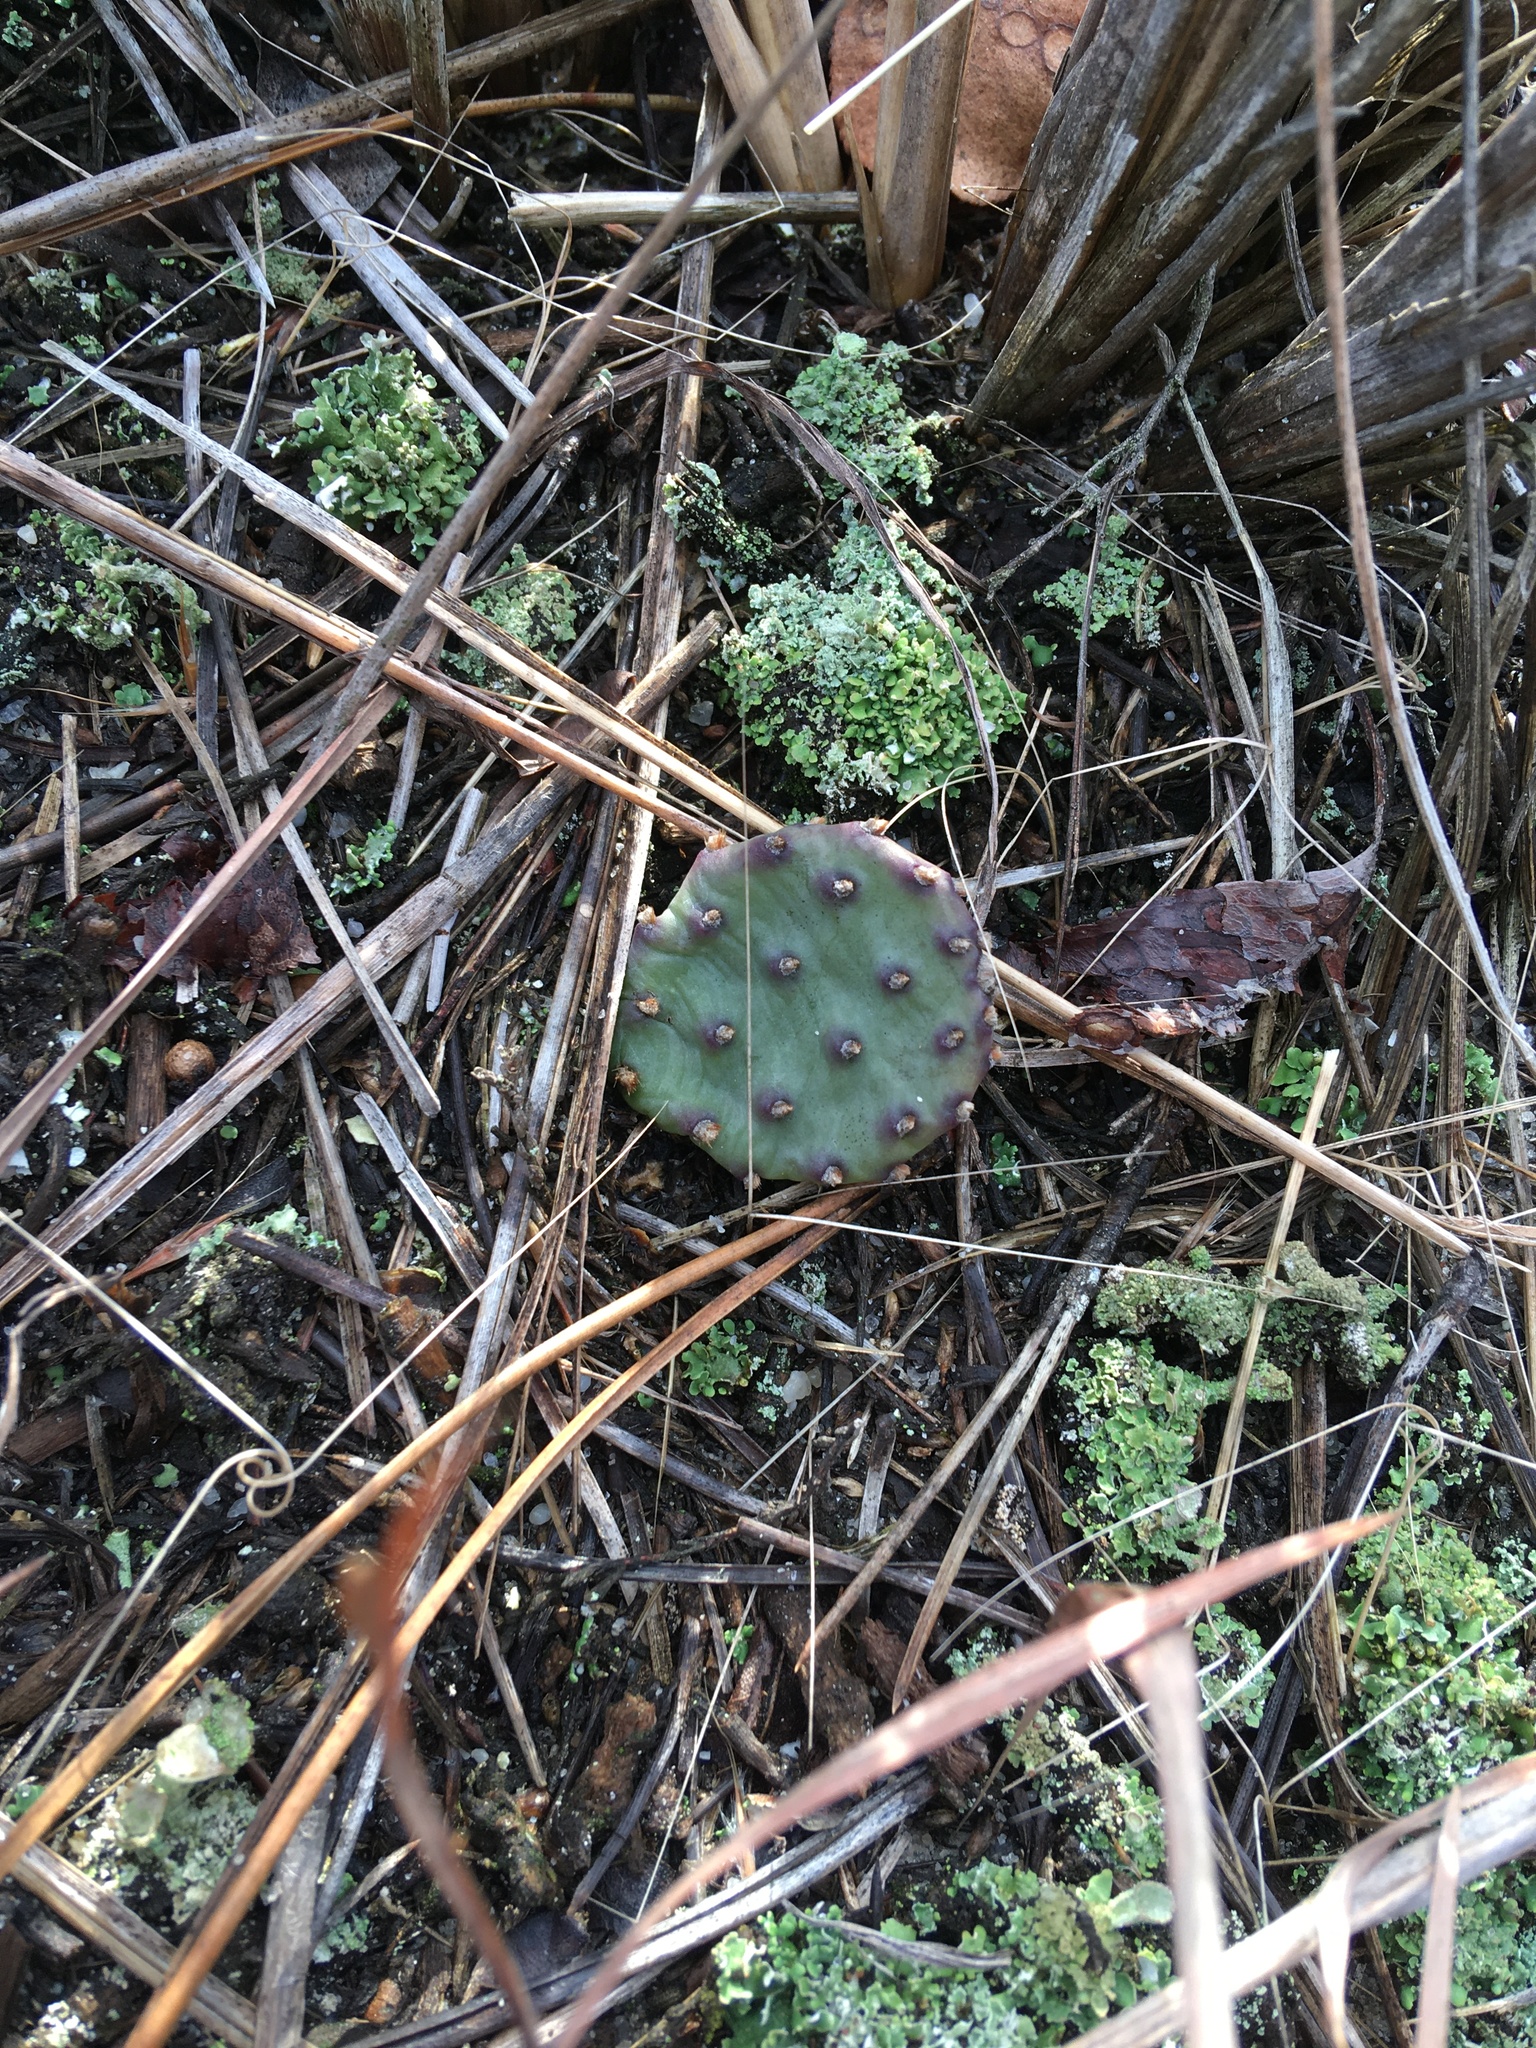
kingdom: Plantae
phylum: Tracheophyta
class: Magnoliopsida
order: Caryophyllales
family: Cactaceae
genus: Opuntia
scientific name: Opuntia humifusa
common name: Eastern prickly-pear
